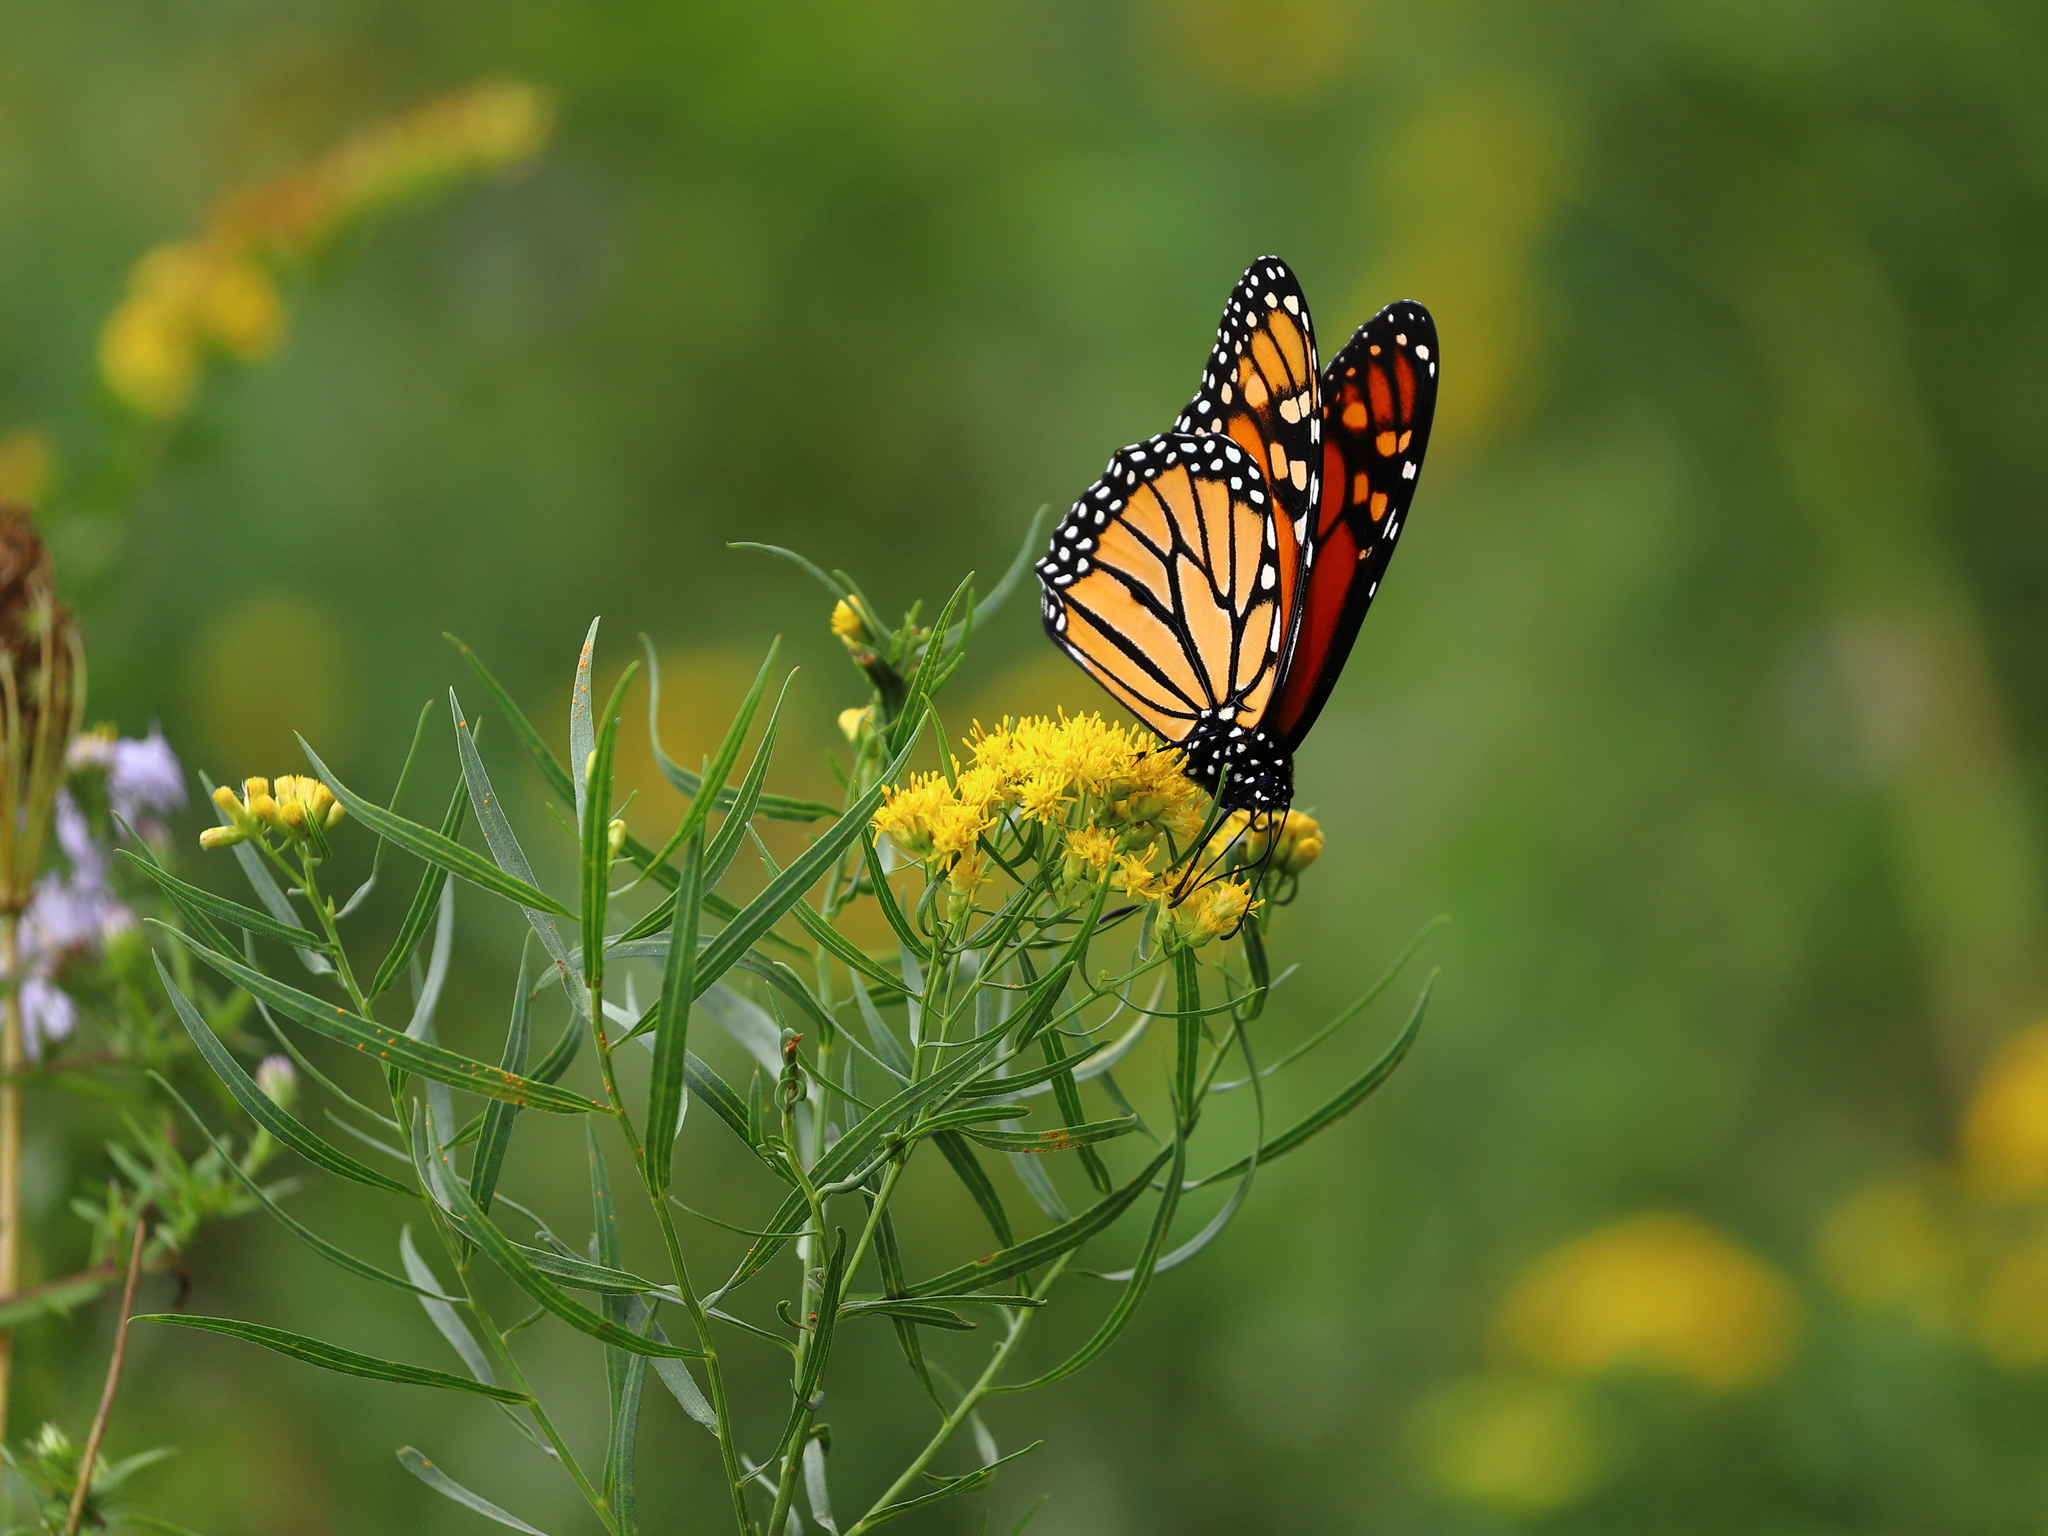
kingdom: Animalia
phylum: Arthropoda
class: Insecta
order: Lepidoptera
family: Nymphalidae
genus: Danaus
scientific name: Danaus plexippus
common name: Monarch
